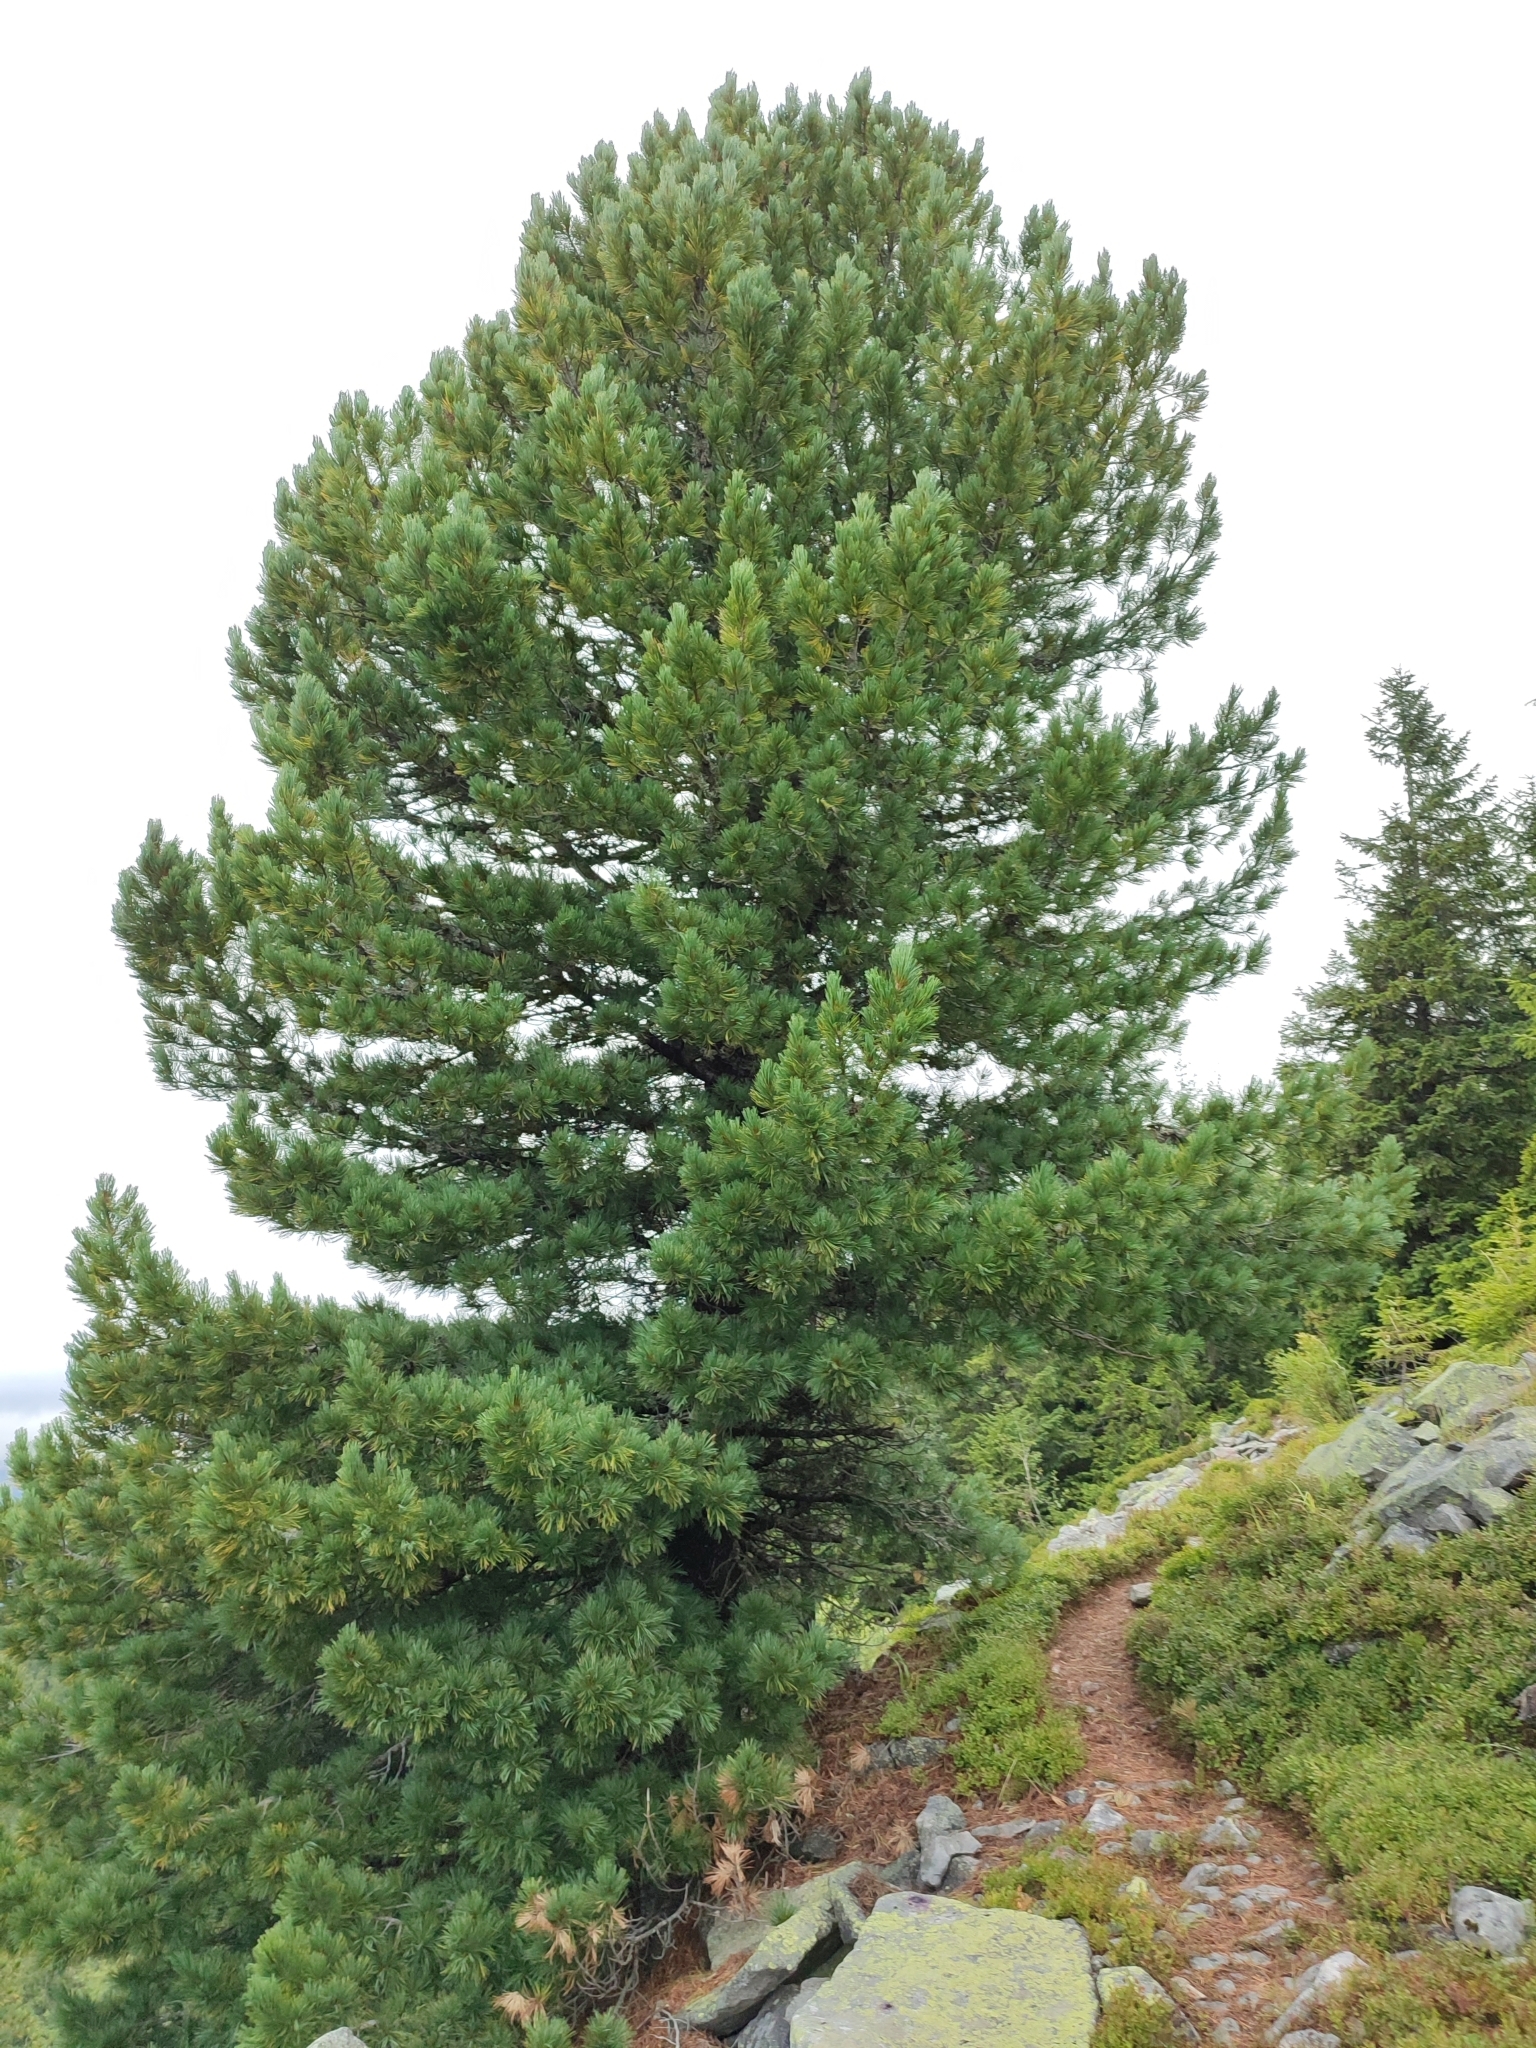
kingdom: Plantae
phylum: Tracheophyta
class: Pinopsida
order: Pinales
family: Pinaceae
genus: Pinus
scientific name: Pinus cembra
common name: Arolla pine
